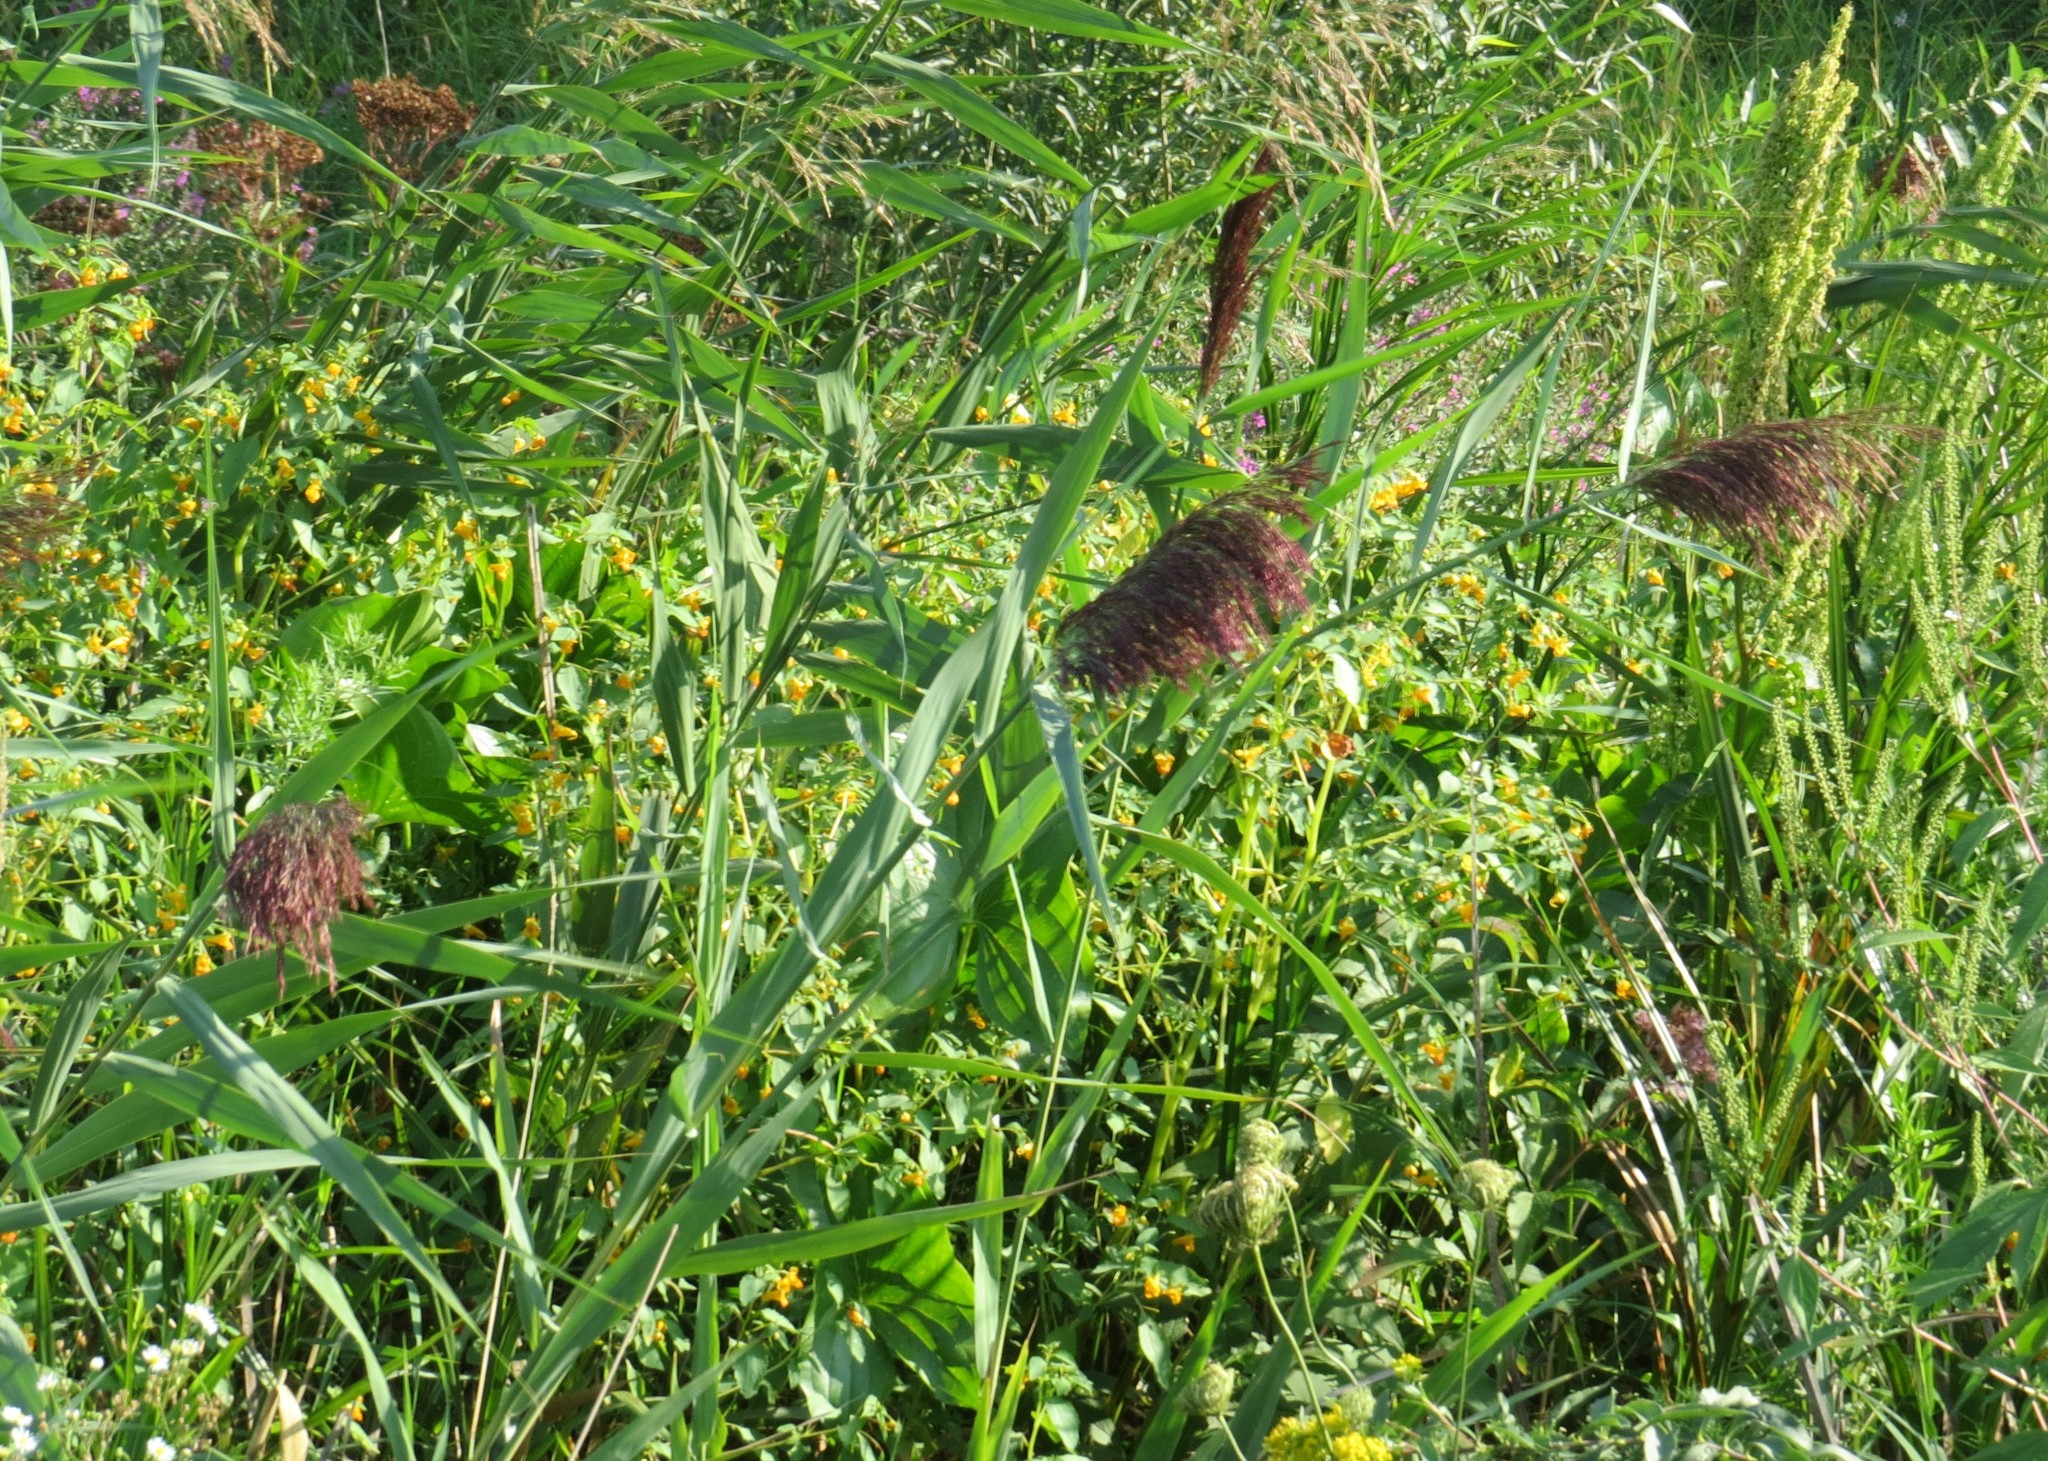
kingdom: Plantae
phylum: Tracheophyta
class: Liliopsida
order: Poales
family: Poaceae
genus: Phragmites
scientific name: Phragmites australis
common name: Common reed
